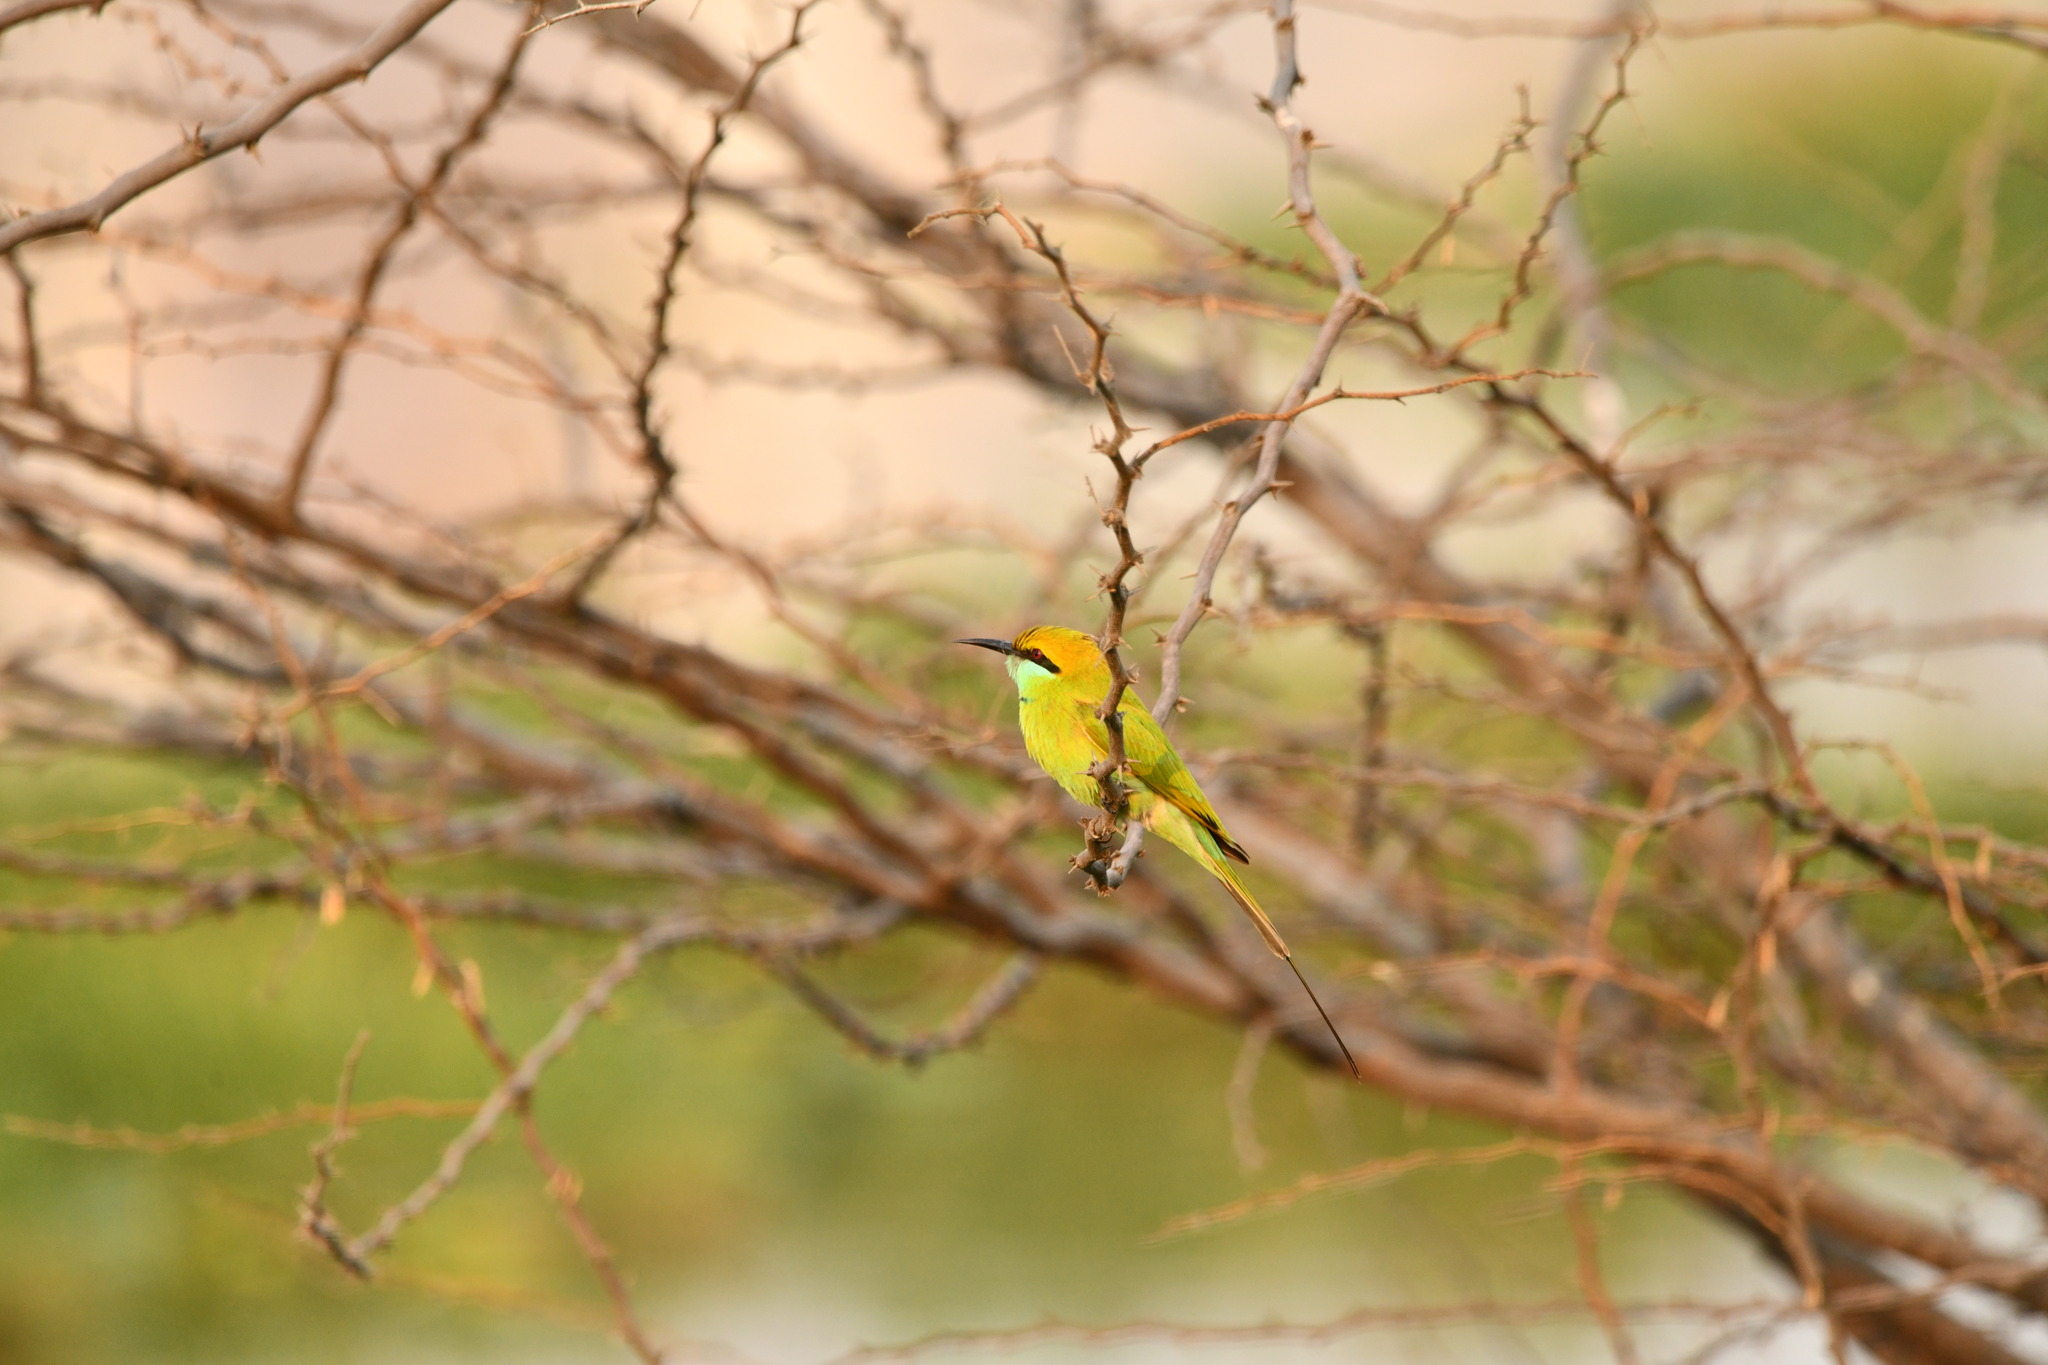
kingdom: Animalia
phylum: Chordata
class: Aves
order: Coraciiformes
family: Meropidae
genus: Merops
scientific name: Merops orientalis
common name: Green bee-eater
